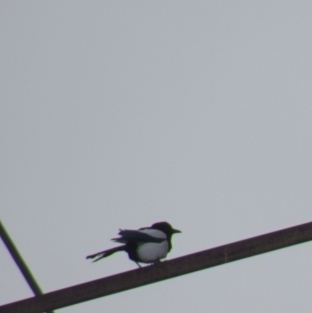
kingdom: Animalia
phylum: Chordata
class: Aves
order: Passeriformes
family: Corvidae
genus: Pica
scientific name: Pica pica
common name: Eurasian magpie
